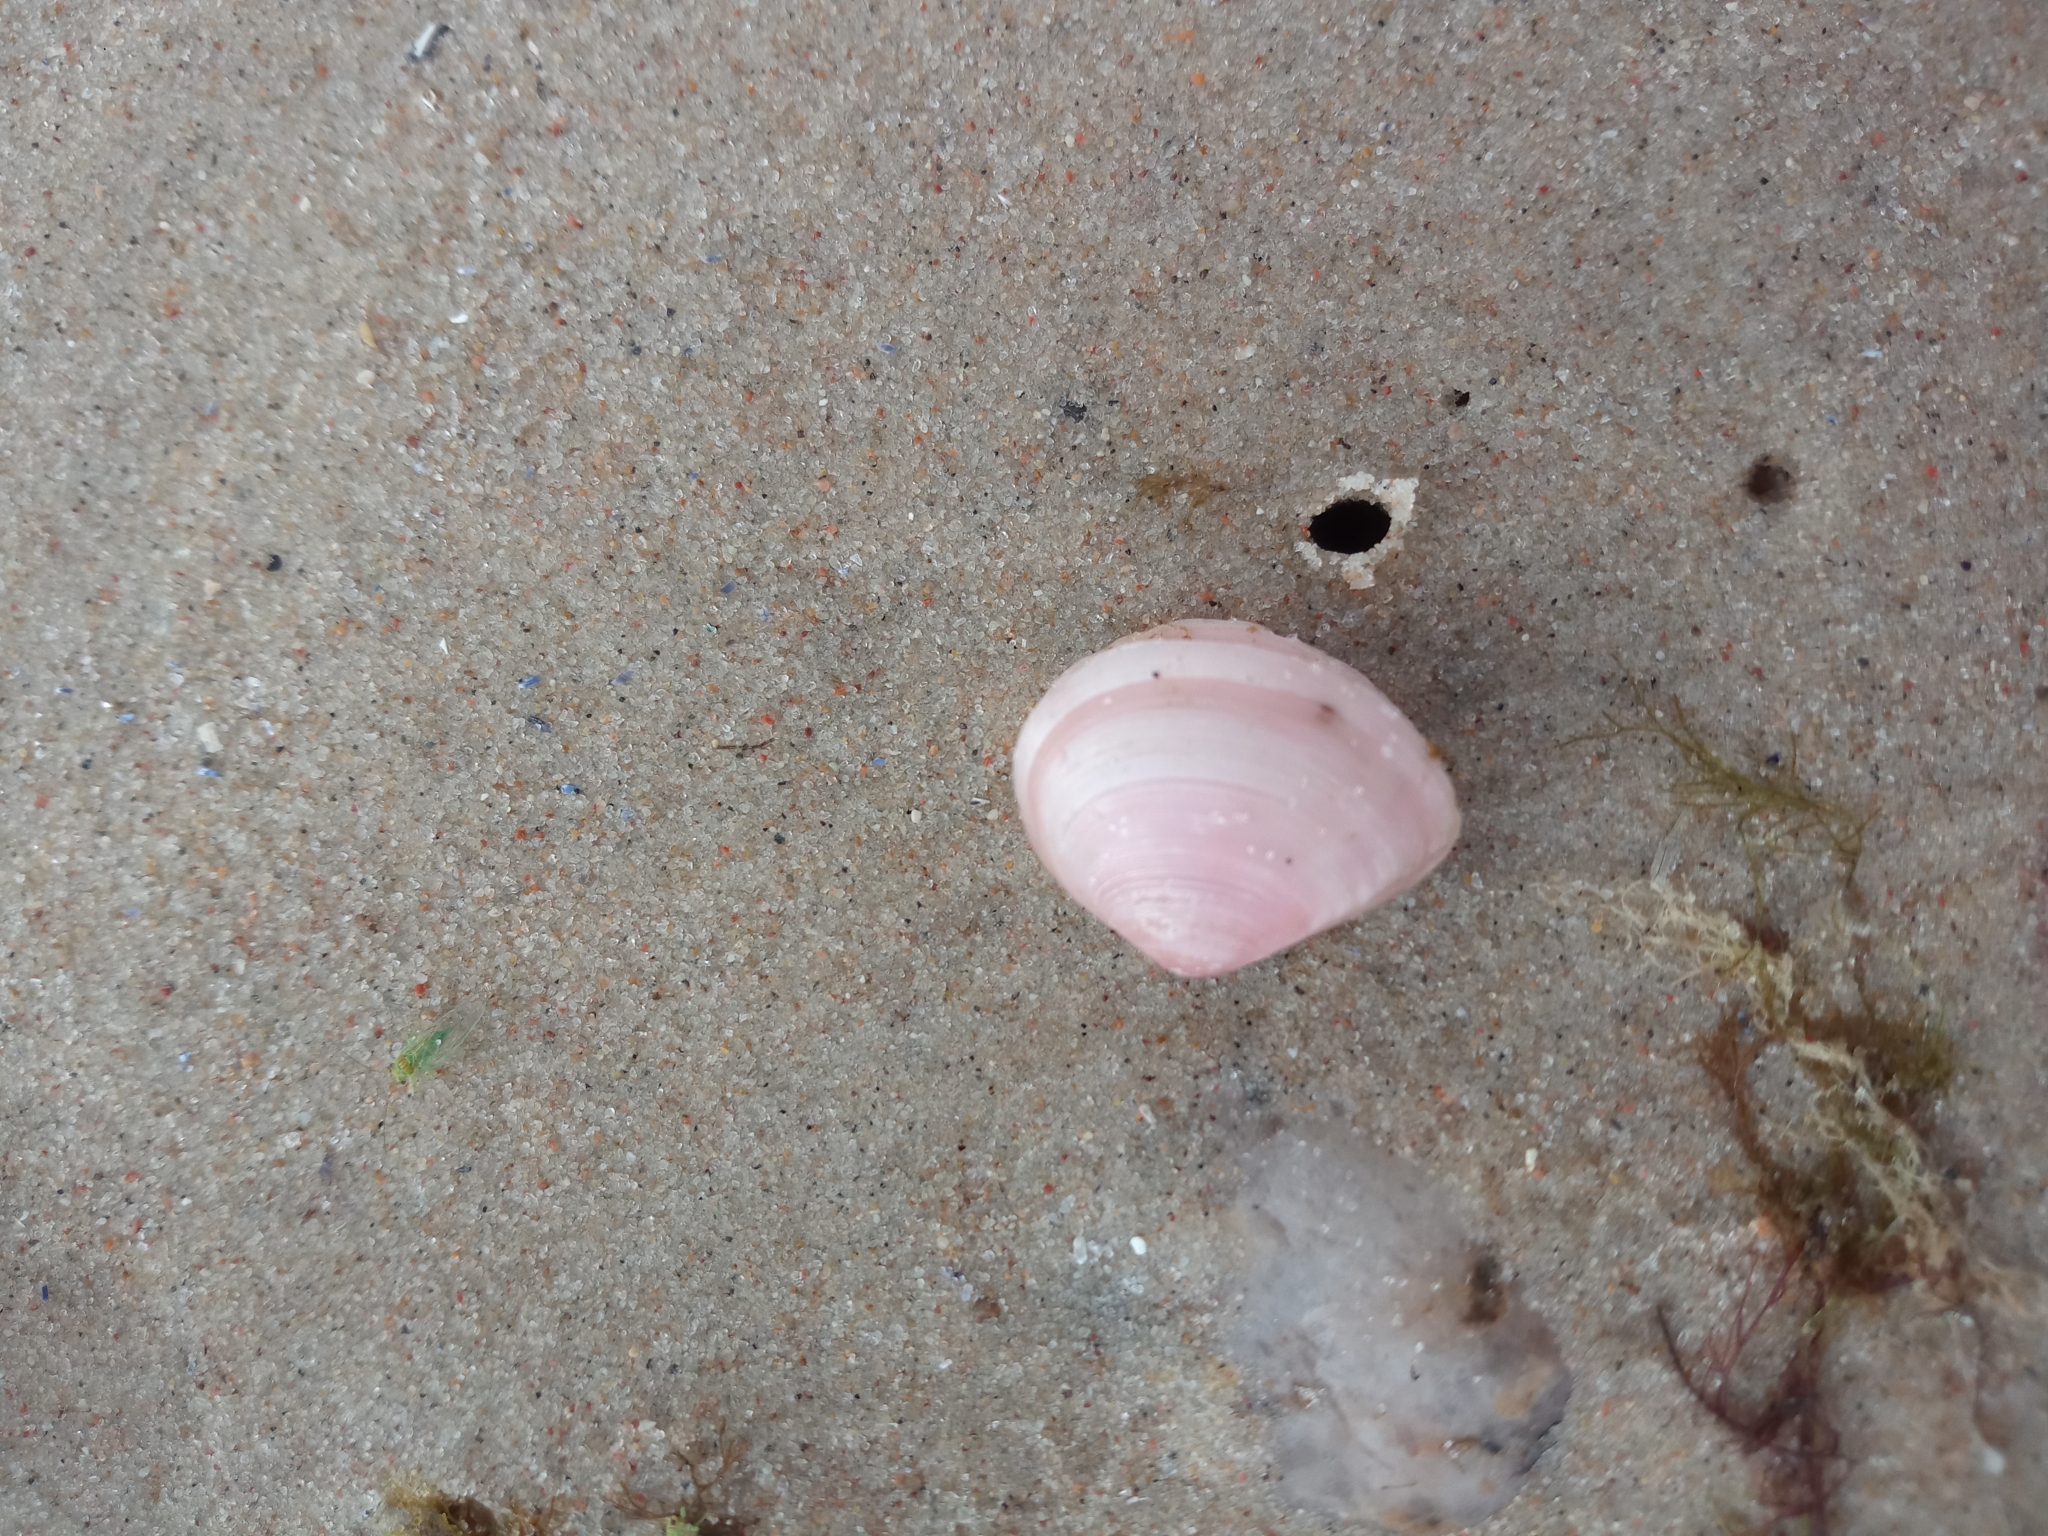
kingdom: Animalia
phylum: Mollusca
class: Bivalvia
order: Cardiida
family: Tellinidae
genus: Macoma
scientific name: Macoma balthica
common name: Baltic tellin
